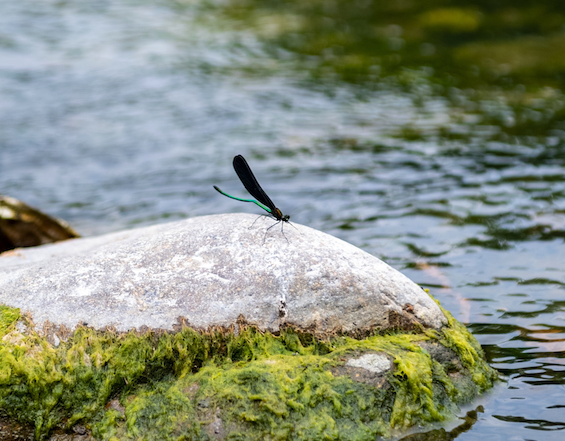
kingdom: Animalia
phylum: Arthropoda
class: Insecta
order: Odonata
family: Calopterygidae
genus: Atrocalopteryx
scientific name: Atrocalopteryx atrata
